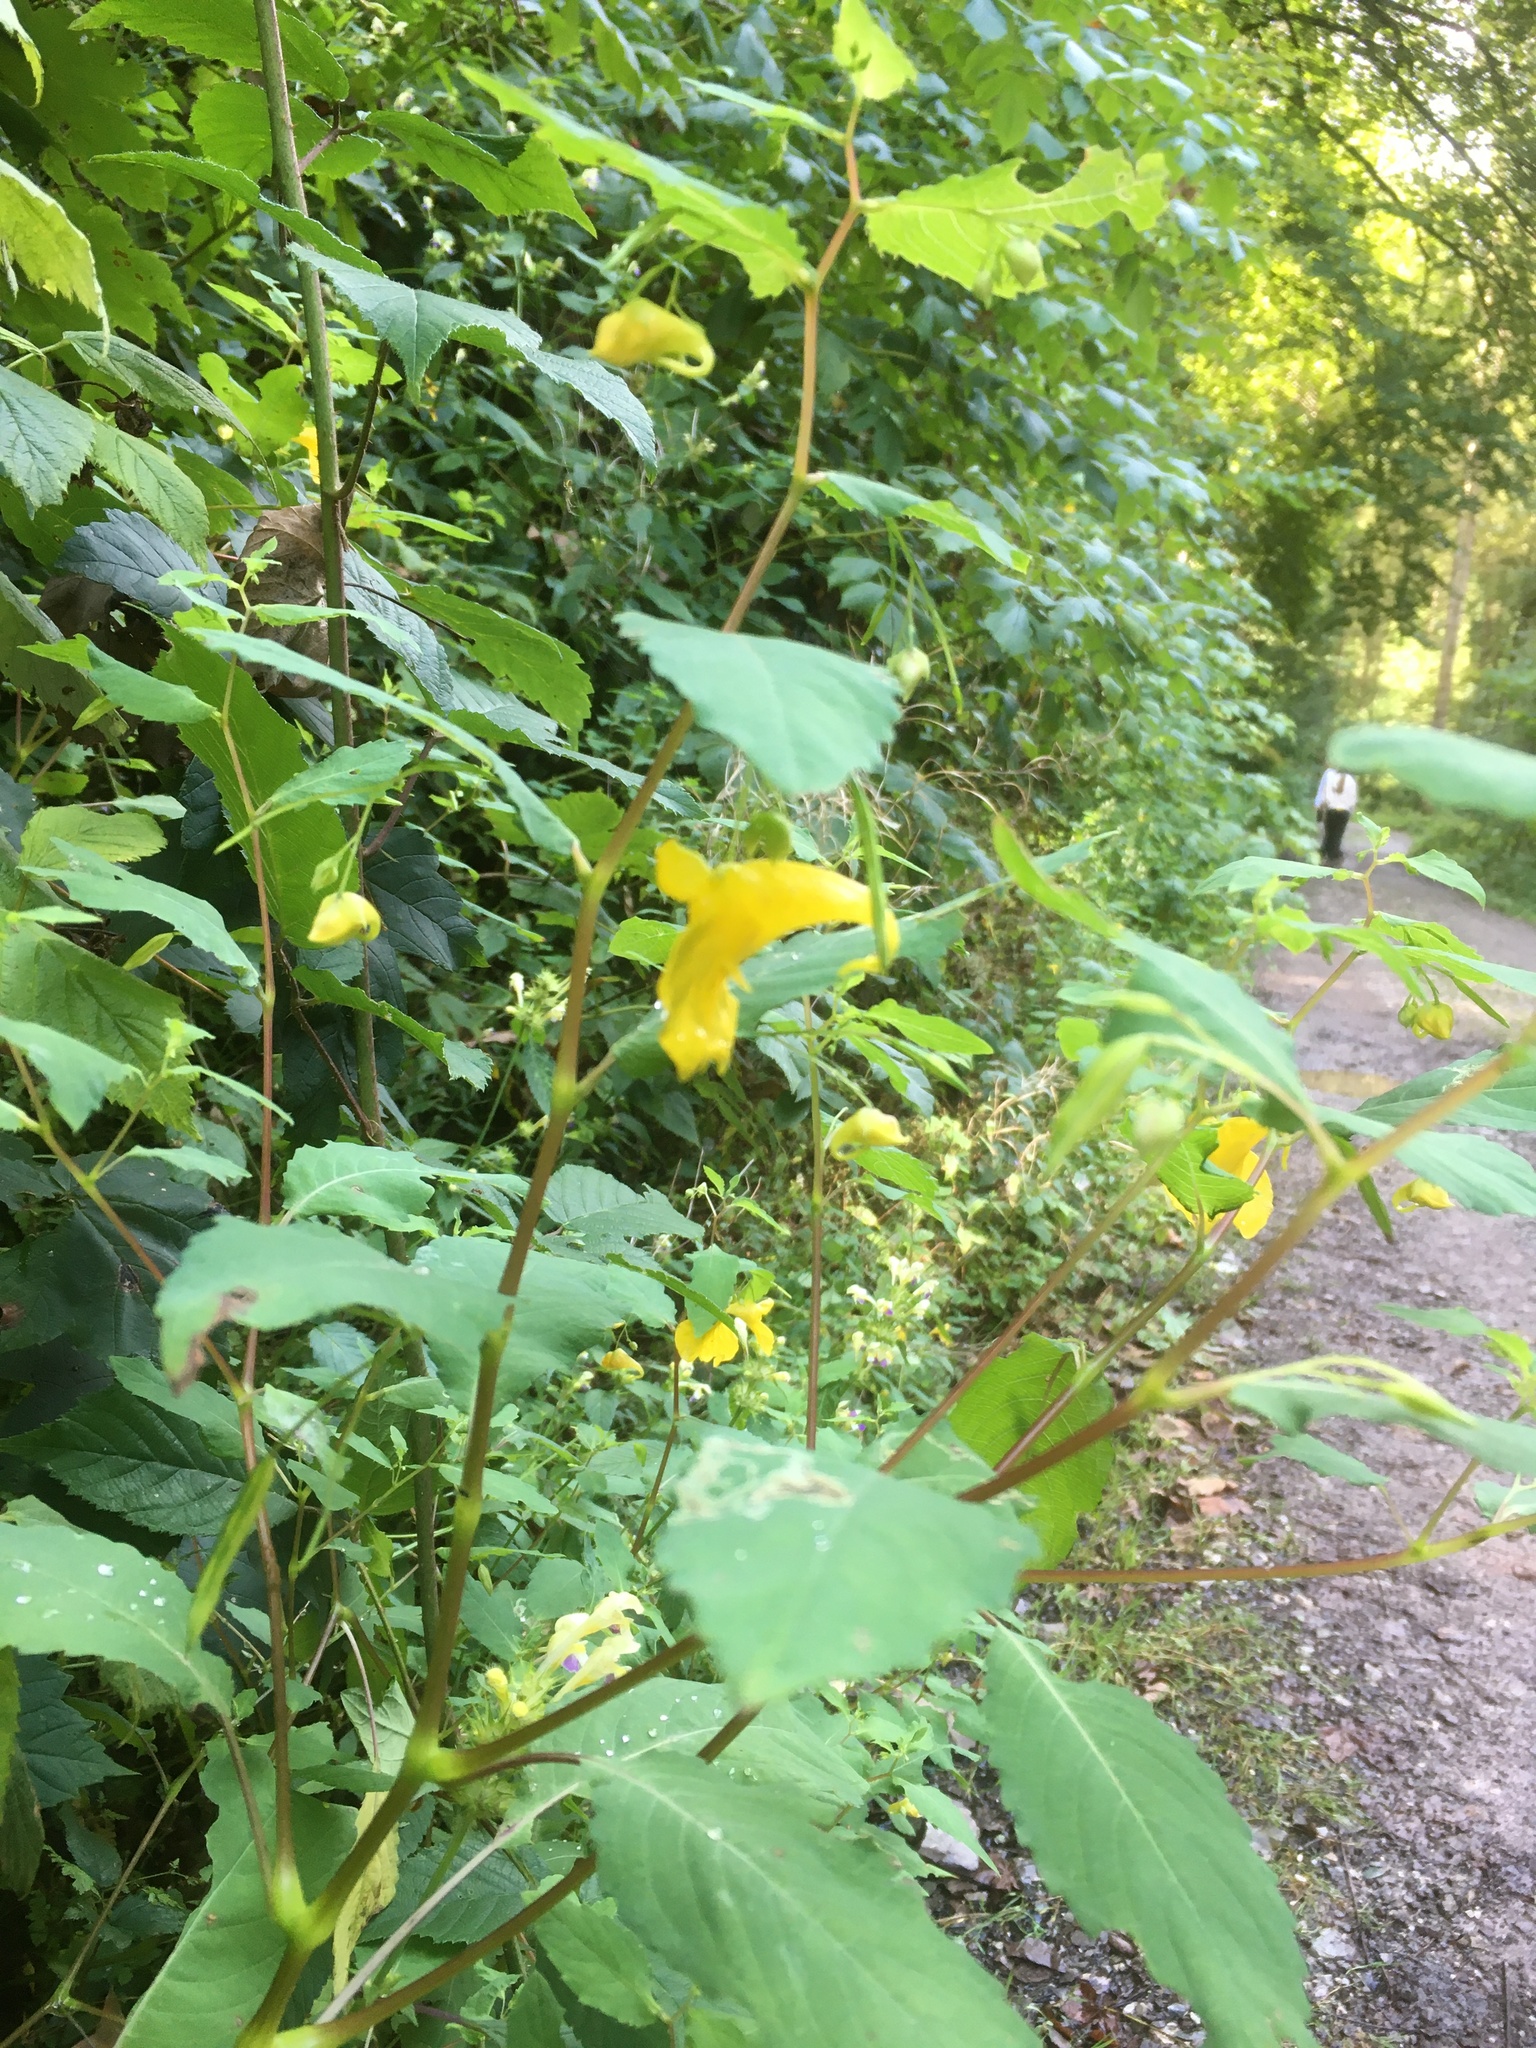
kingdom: Plantae
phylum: Tracheophyta
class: Magnoliopsida
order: Ericales
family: Balsaminaceae
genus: Impatiens
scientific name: Impatiens noli-tangere
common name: Touch-me-not balsam
